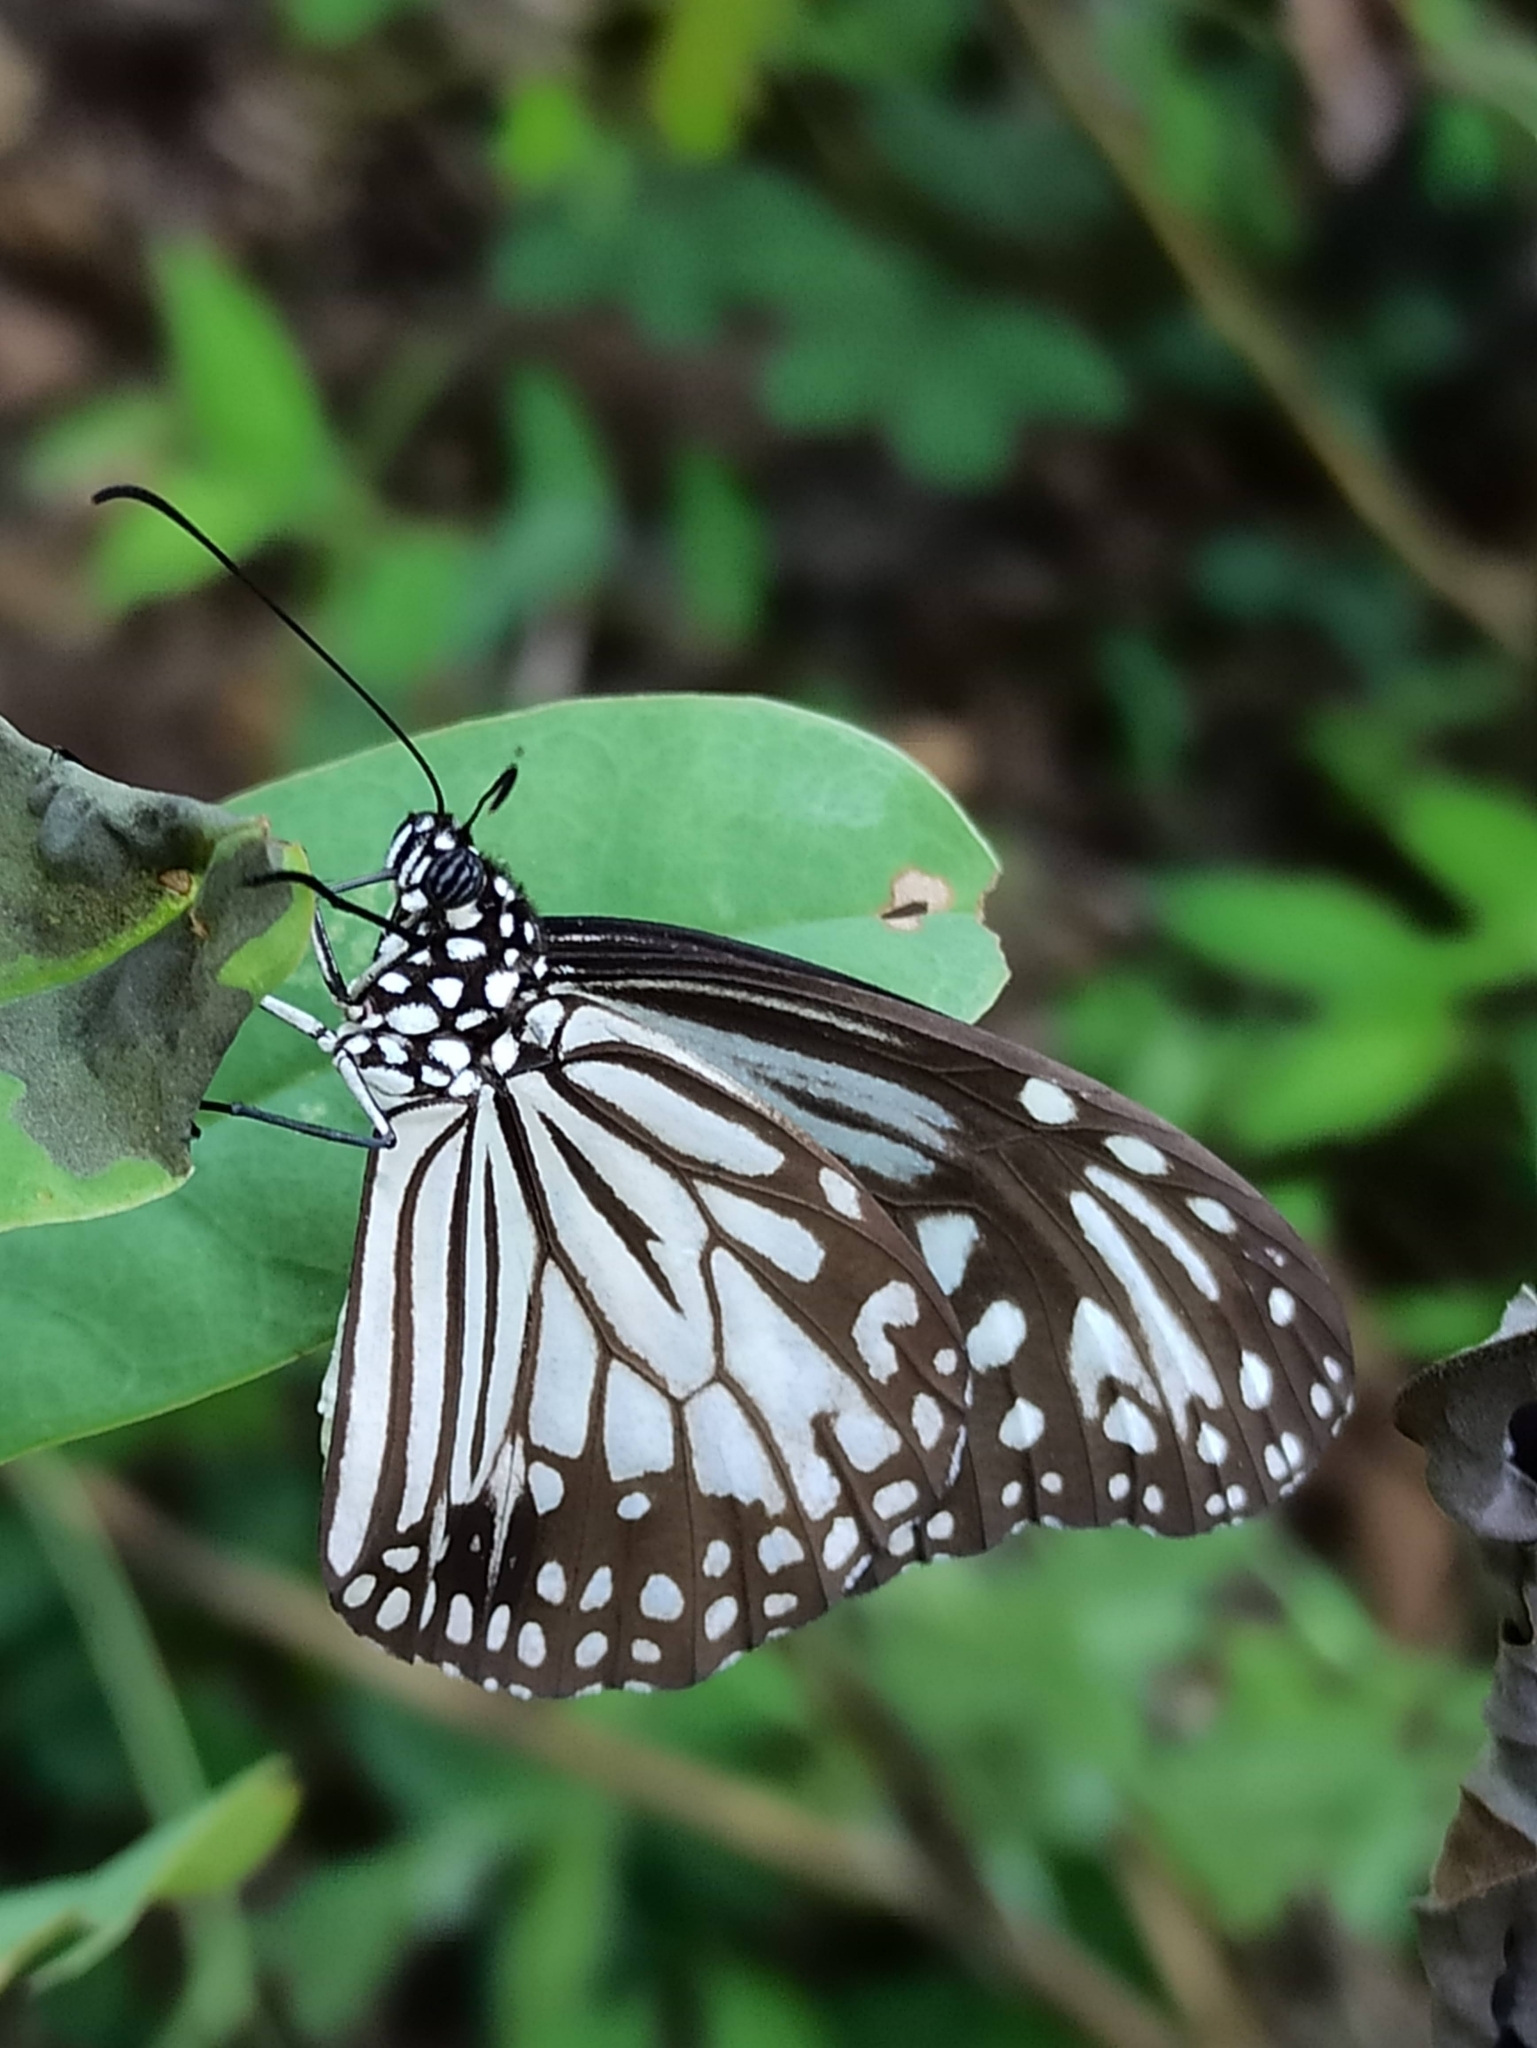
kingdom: Animalia
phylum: Arthropoda
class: Insecta
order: Lepidoptera
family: Nymphalidae
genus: Parantica
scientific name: Parantica aglea
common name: Glassy tiger
